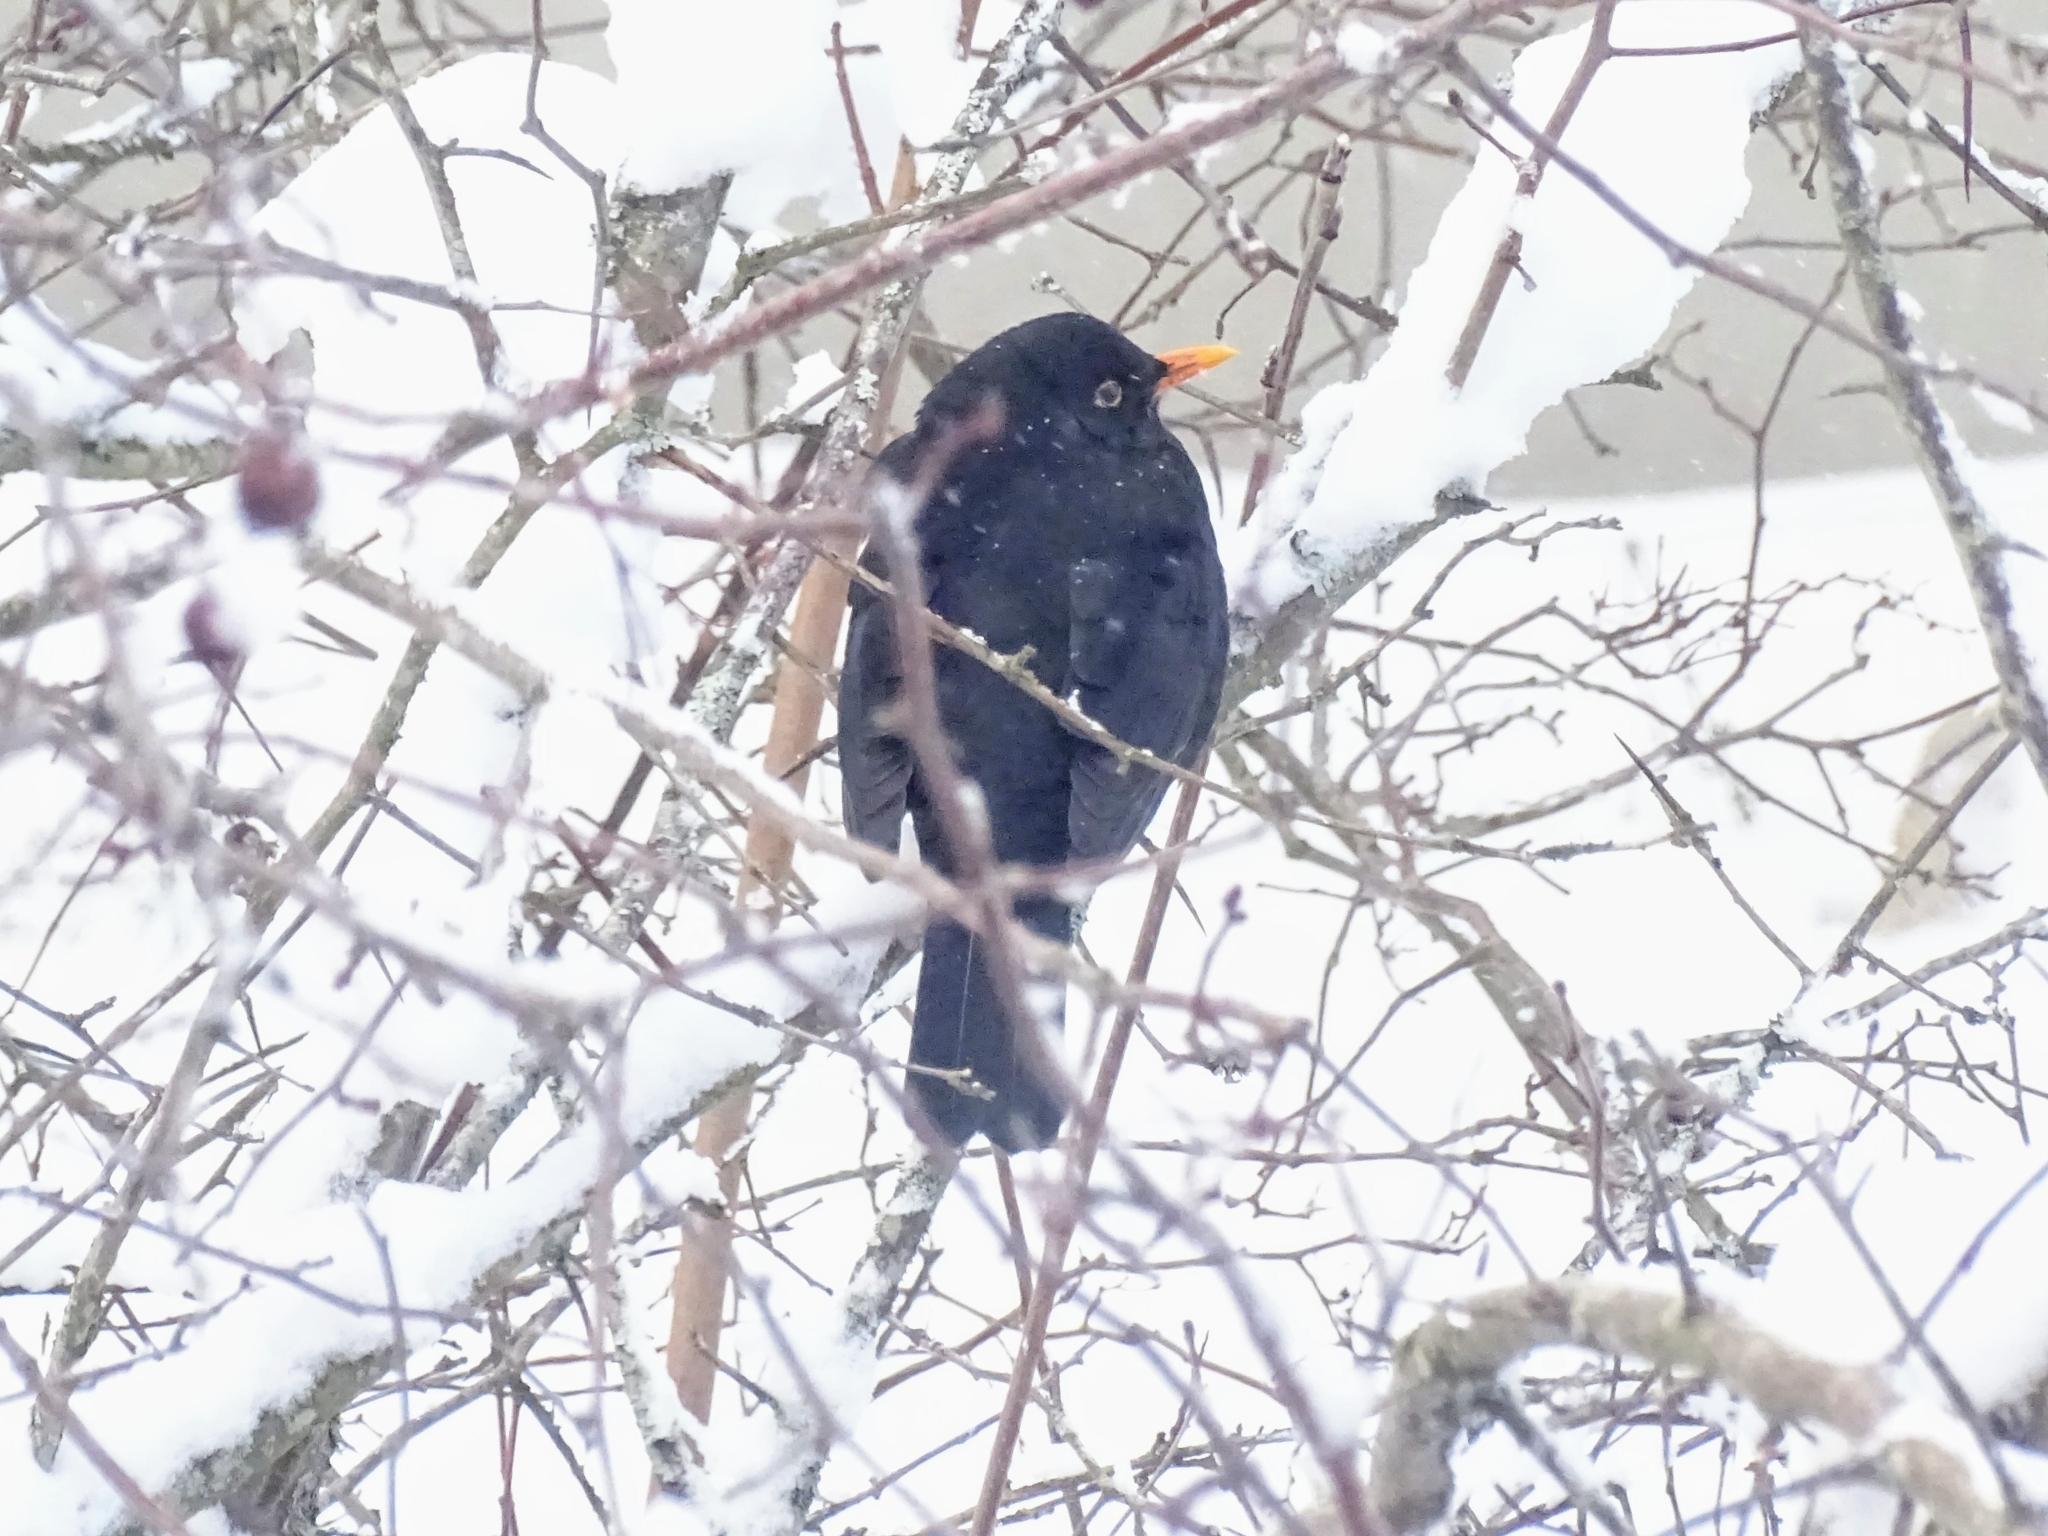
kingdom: Animalia
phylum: Chordata
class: Aves
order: Passeriformes
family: Turdidae
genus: Turdus
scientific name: Turdus merula
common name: Common blackbird
